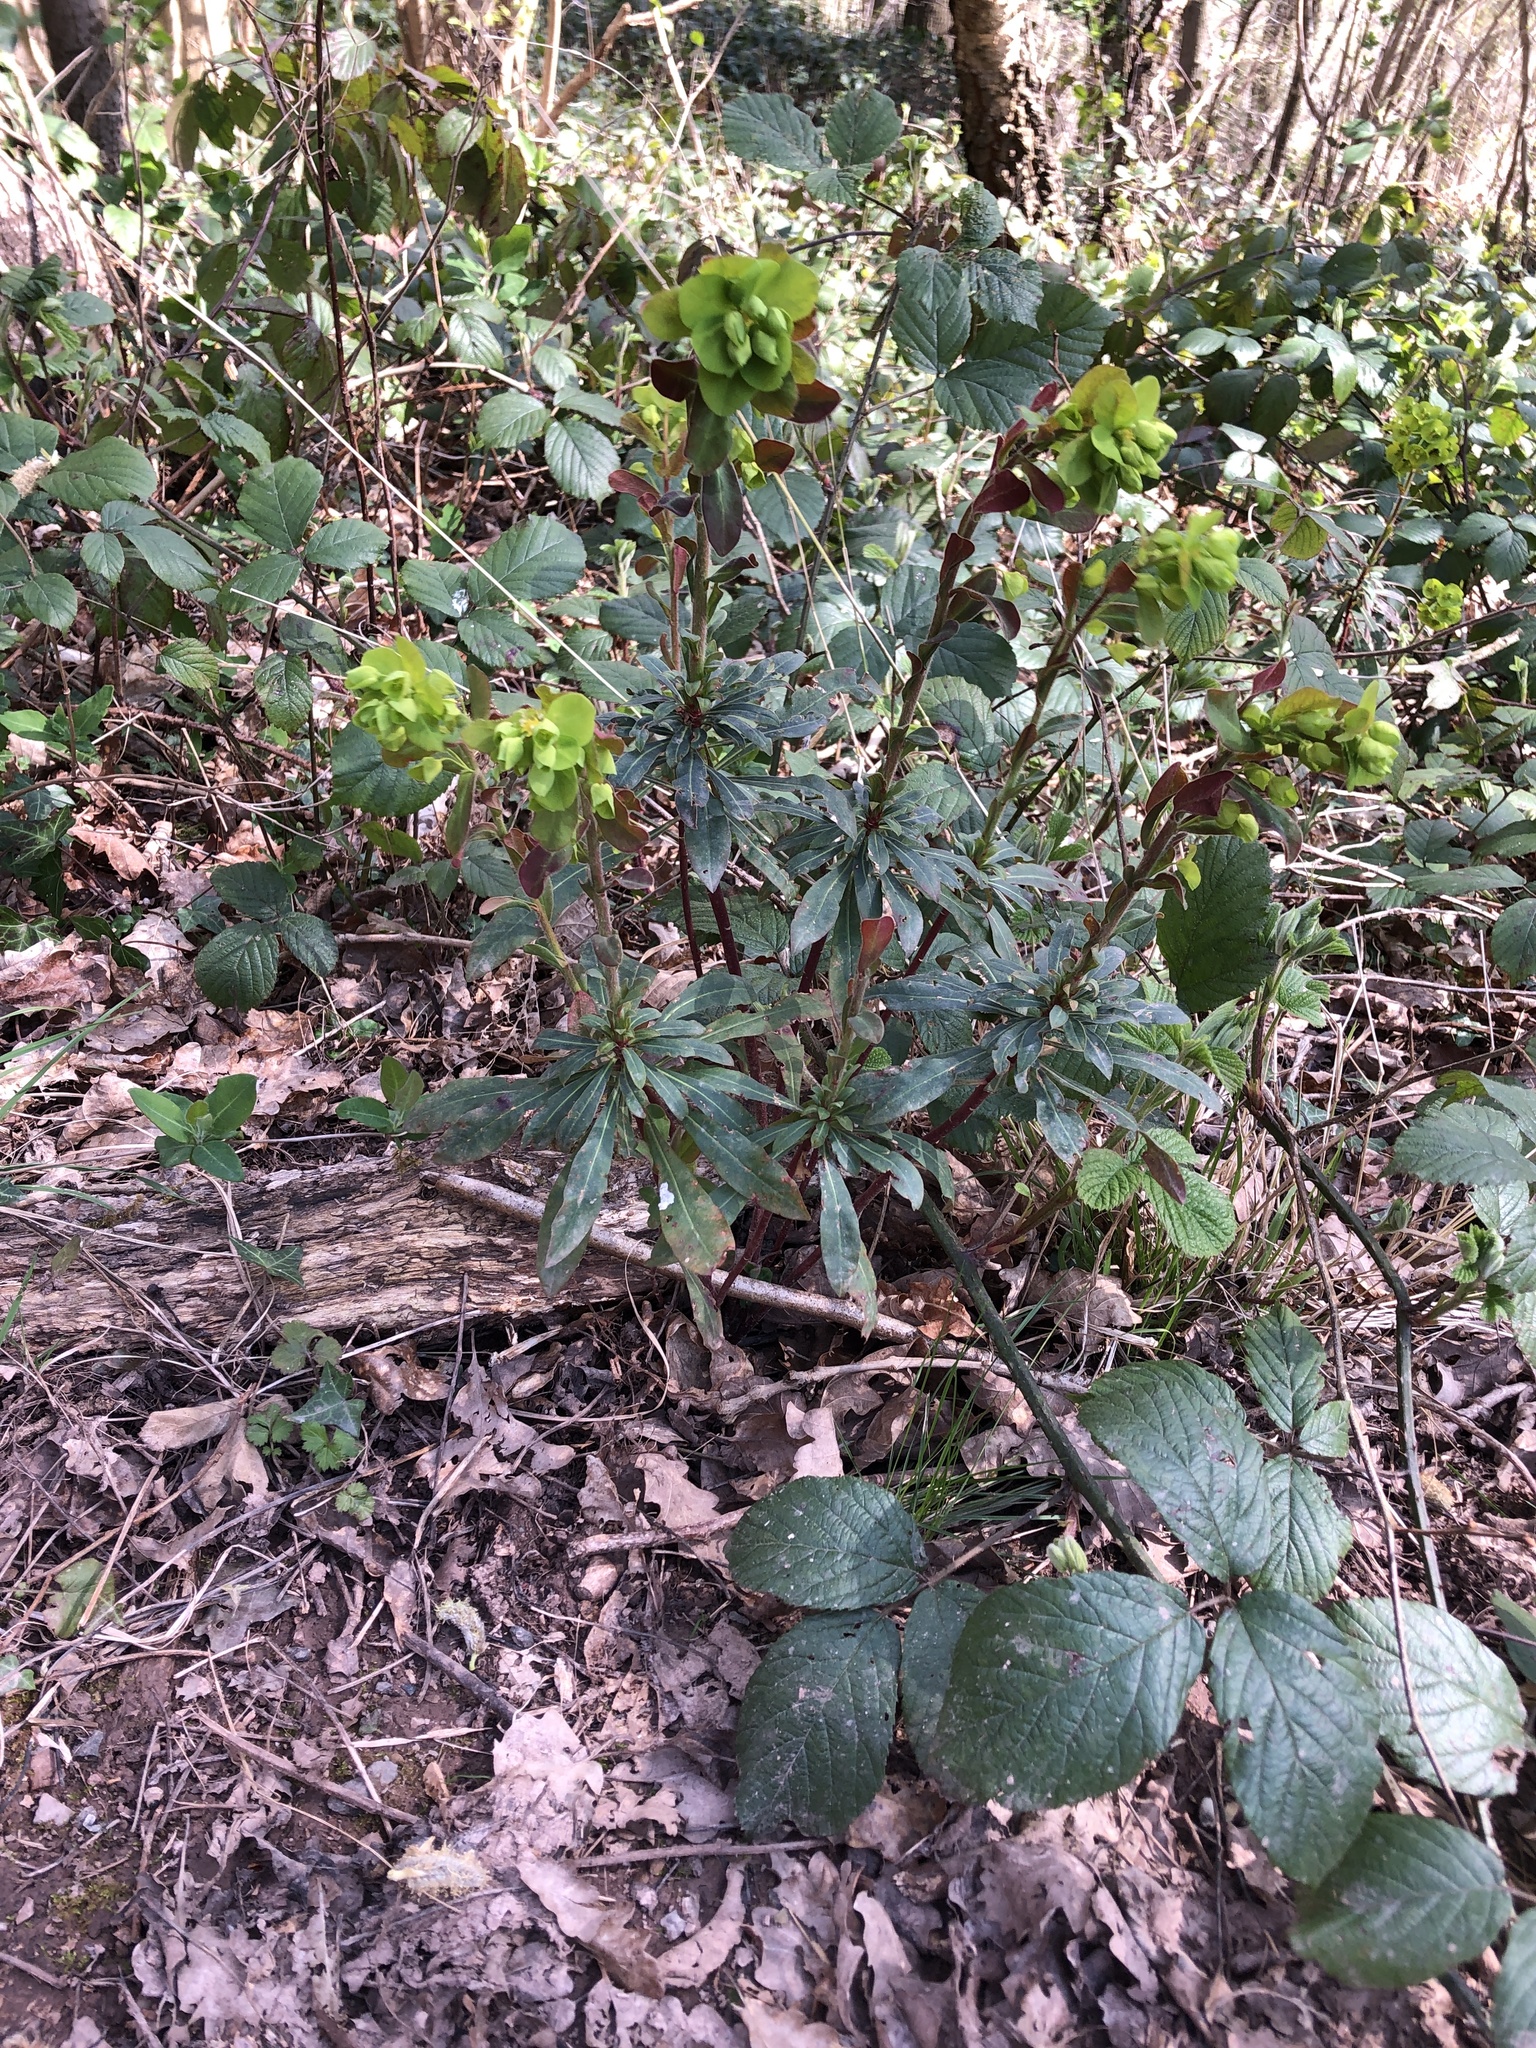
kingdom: Plantae
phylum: Tracheophyta
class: Magnoliopsida
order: Malpighiales
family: Euphorbiaceae
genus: Euphorbia
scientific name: Euphorbia amygdaloides
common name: Wood spurge
